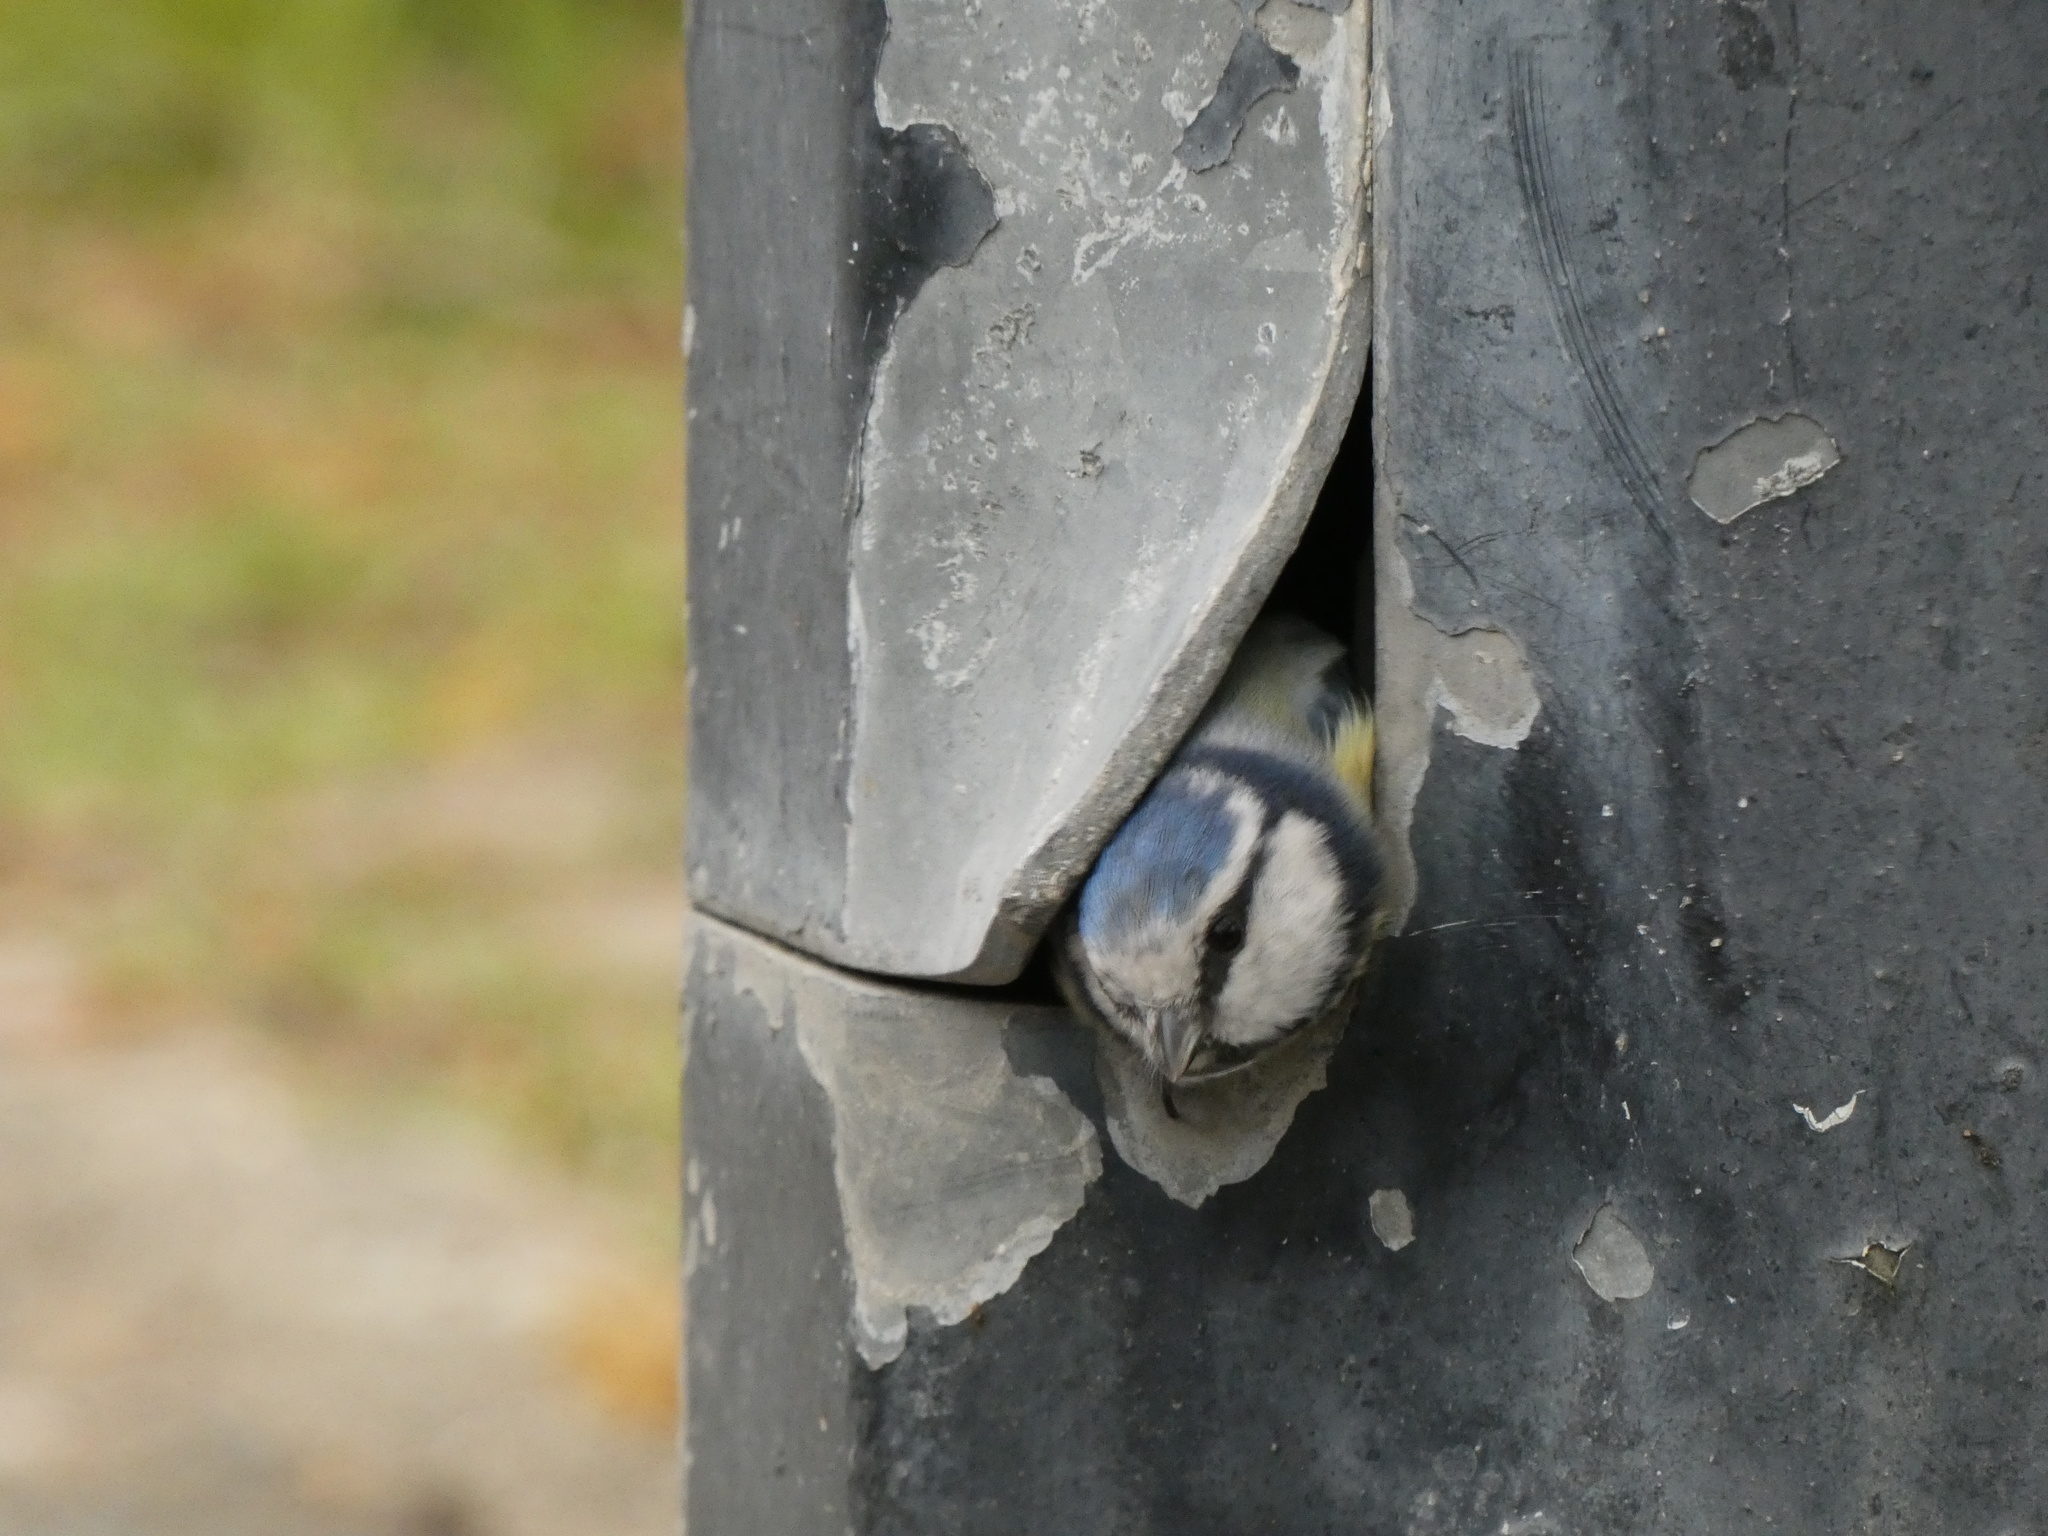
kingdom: Animalia
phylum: Chordata
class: Aves
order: Passeriformes
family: Paridae
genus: Cyanistes
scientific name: Cyanistes caeruleus
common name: Eurasian blue tit
